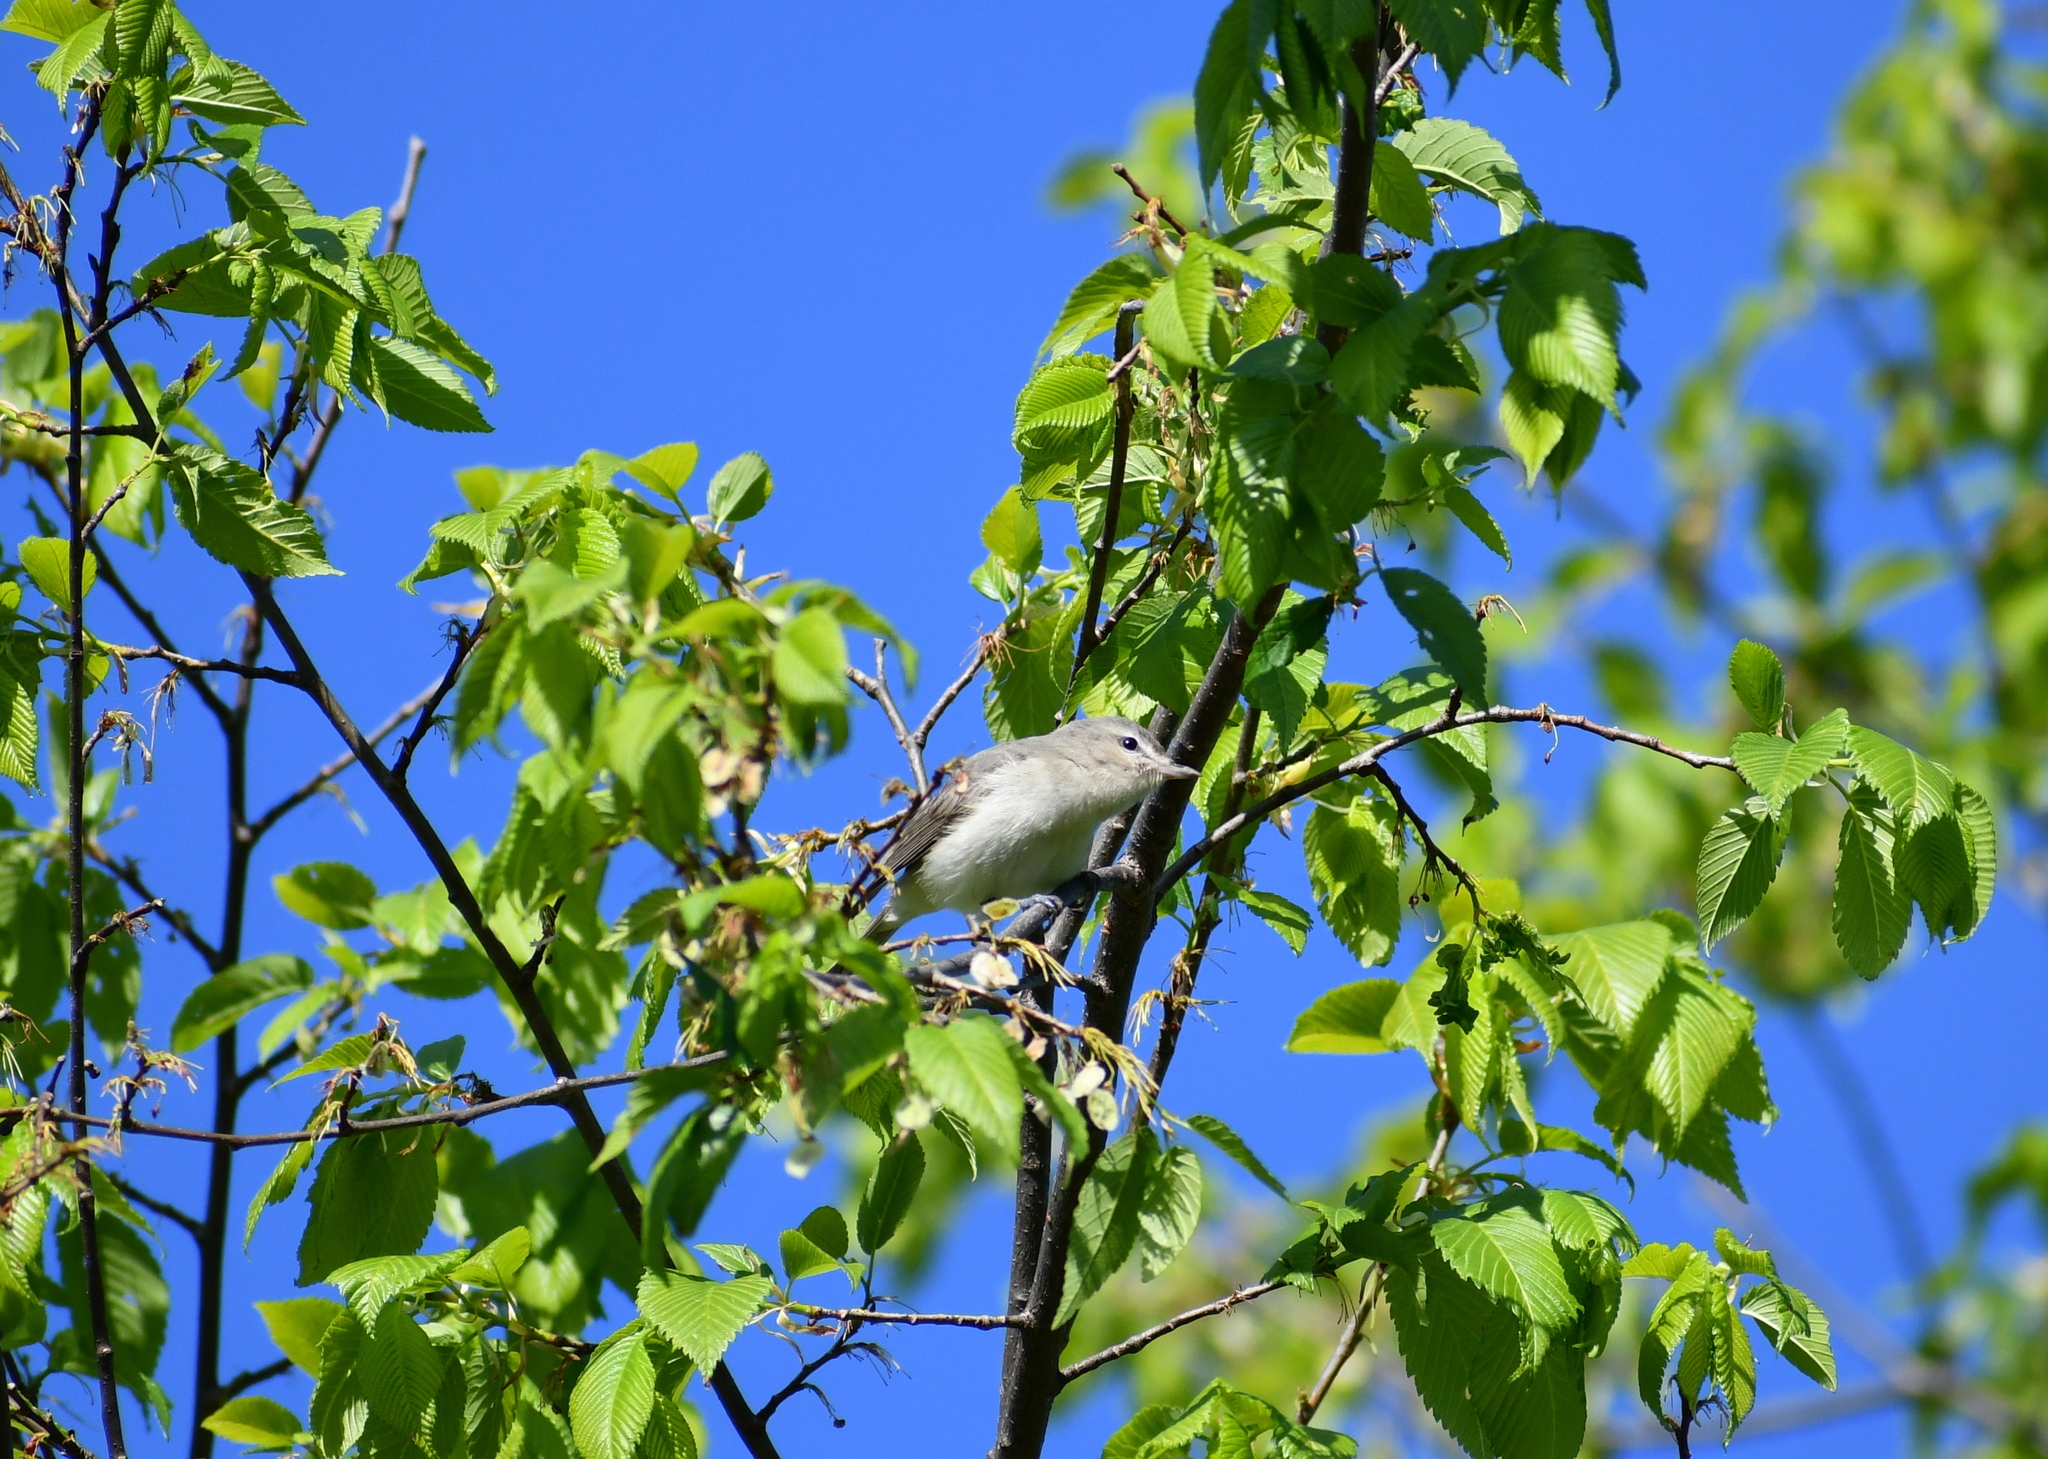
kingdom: Animalia
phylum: Chordata
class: Aves
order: Passeriformes
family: Vireonidae
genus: Vireo
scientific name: Vireo gilvus
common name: Warbling vireo
